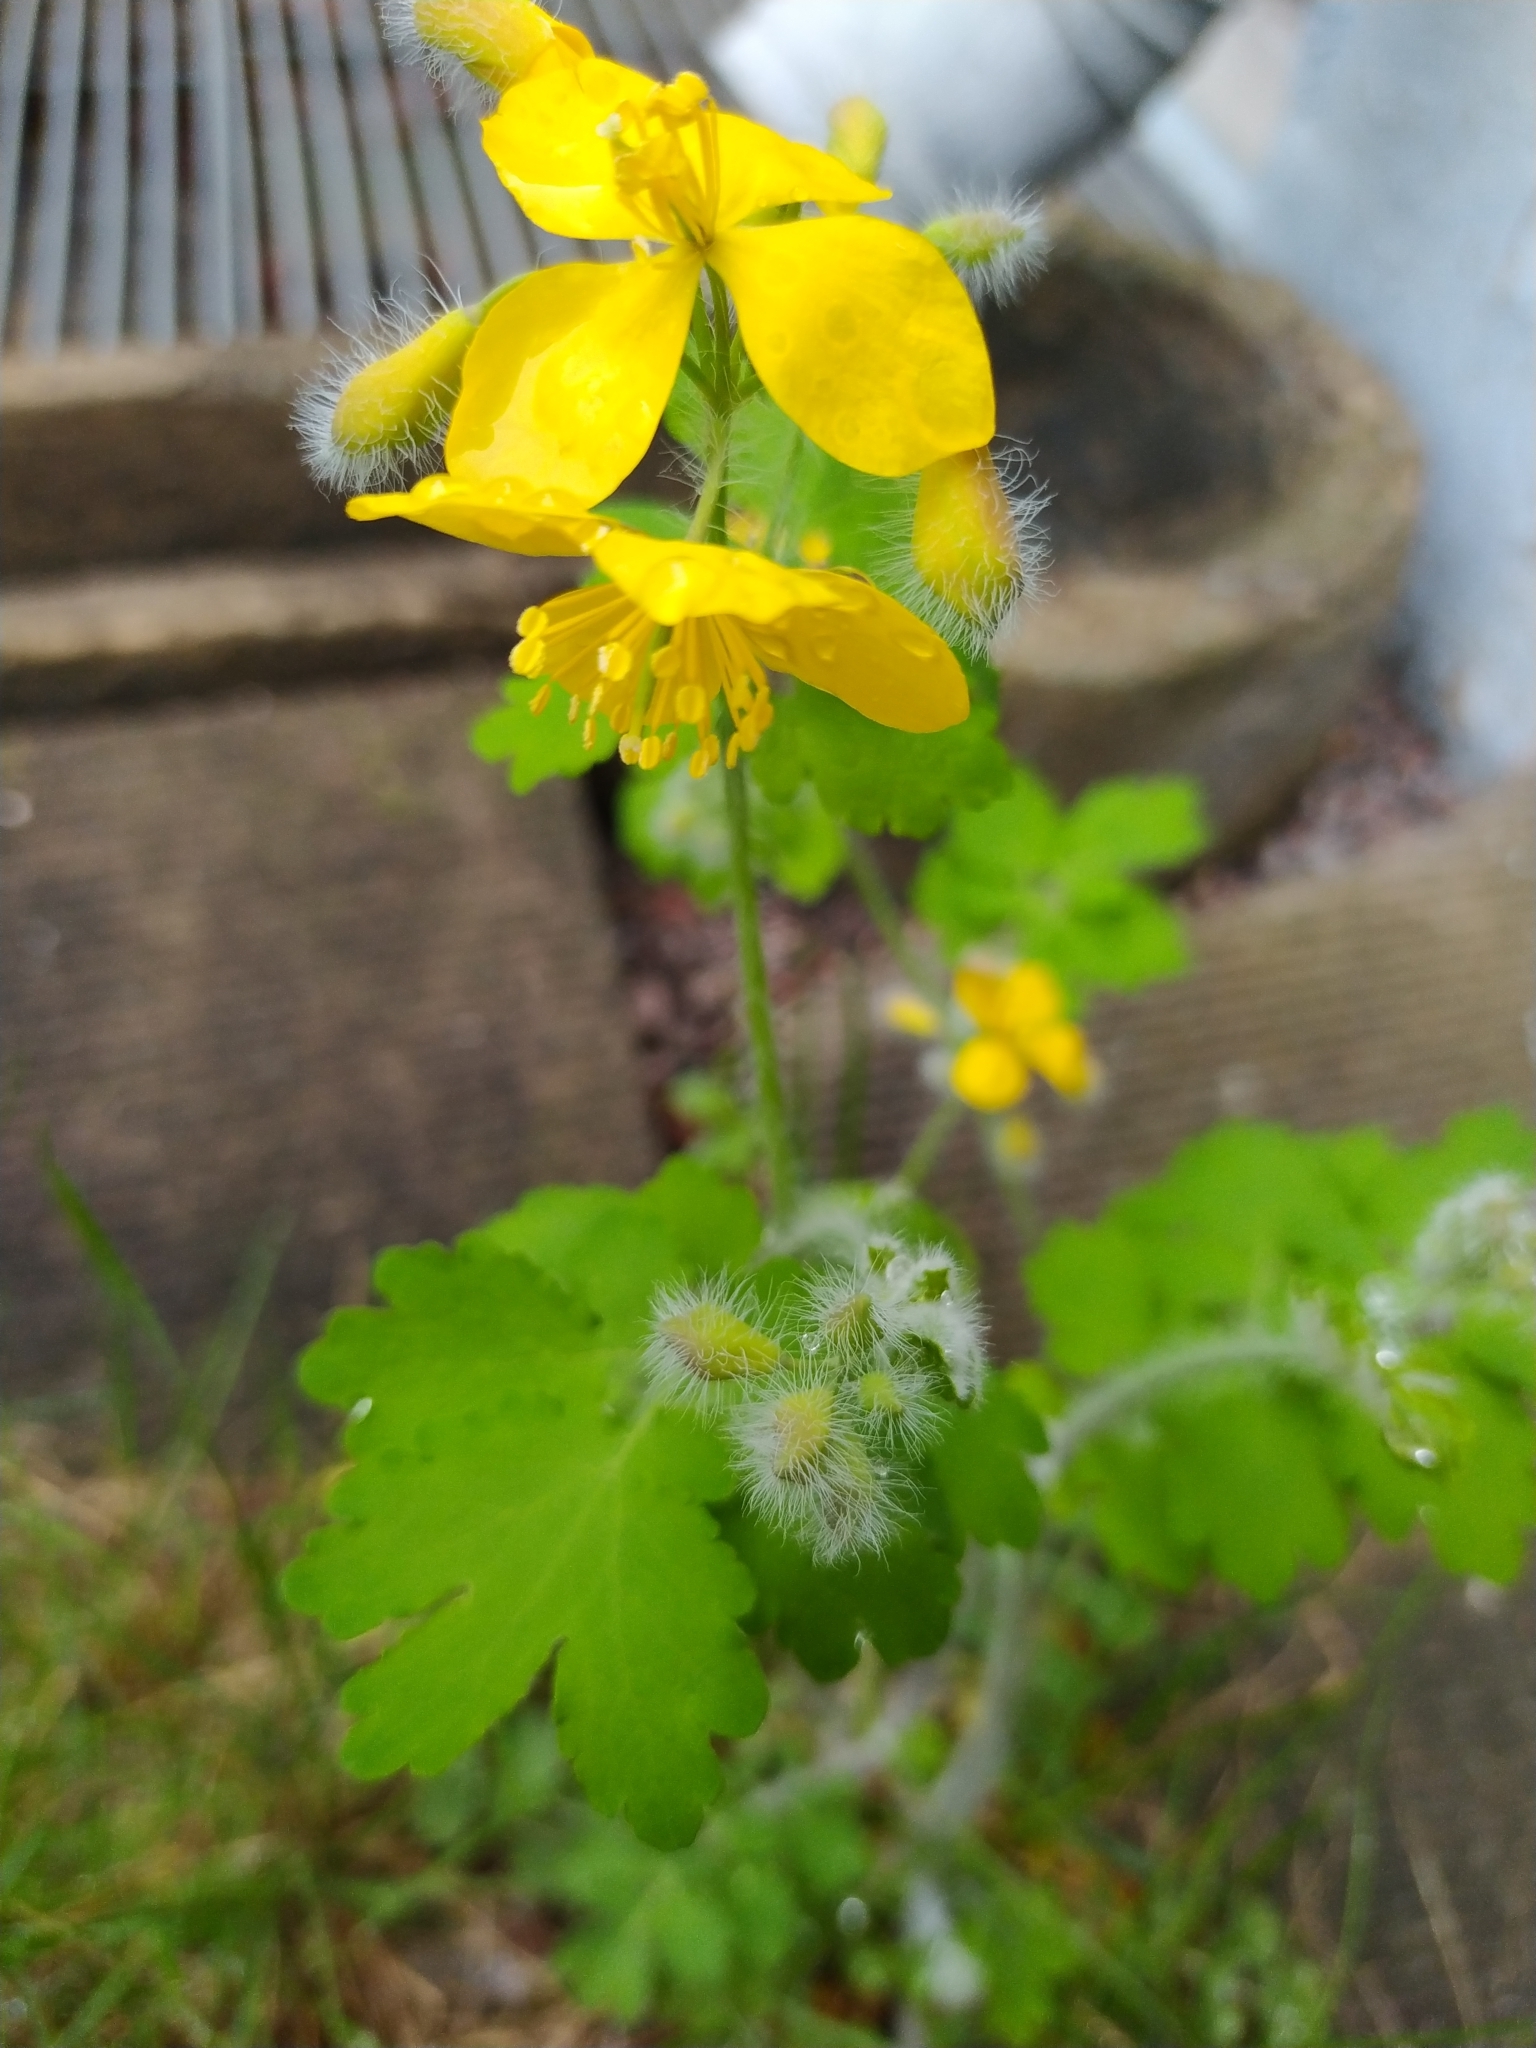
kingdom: Plantae
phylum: Tracheophyta
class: Magnoliopsida
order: Ranunculales
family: Papaveraceae
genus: Chelidonium
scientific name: Chelidonium majus
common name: Greater celandine
